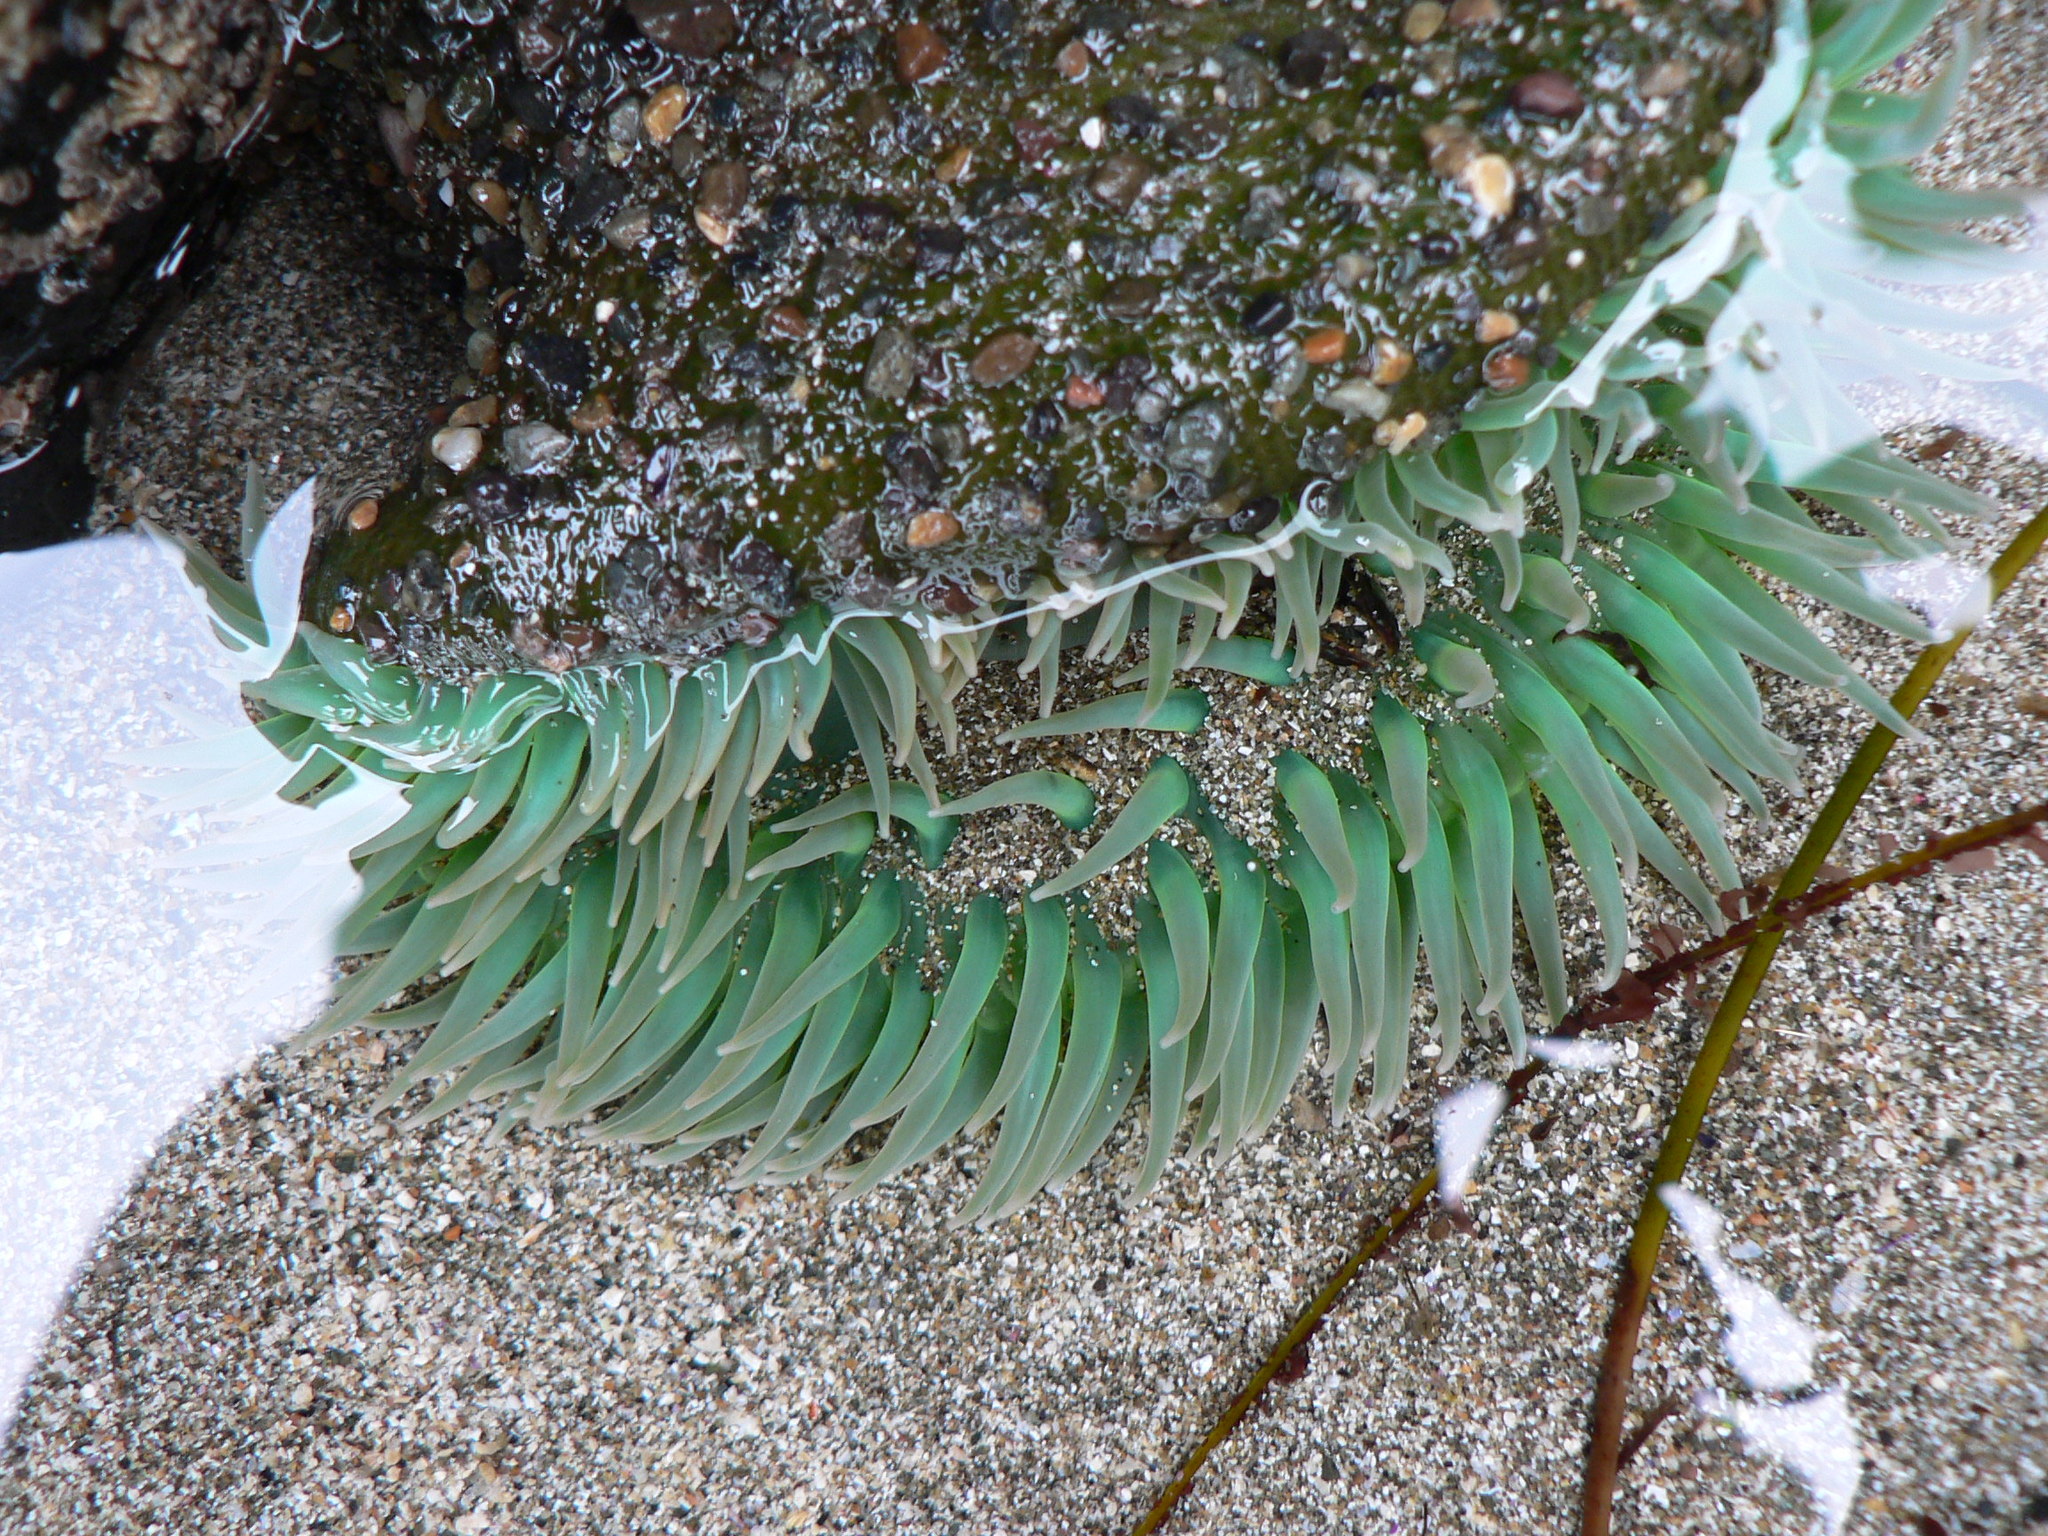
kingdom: Animalia
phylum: Cnidaria
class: Anthozoa
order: Actiniaria
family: Actiniidae
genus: Anthopleura
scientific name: Anthopleura xanthogrammica
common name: Giant green anemone
